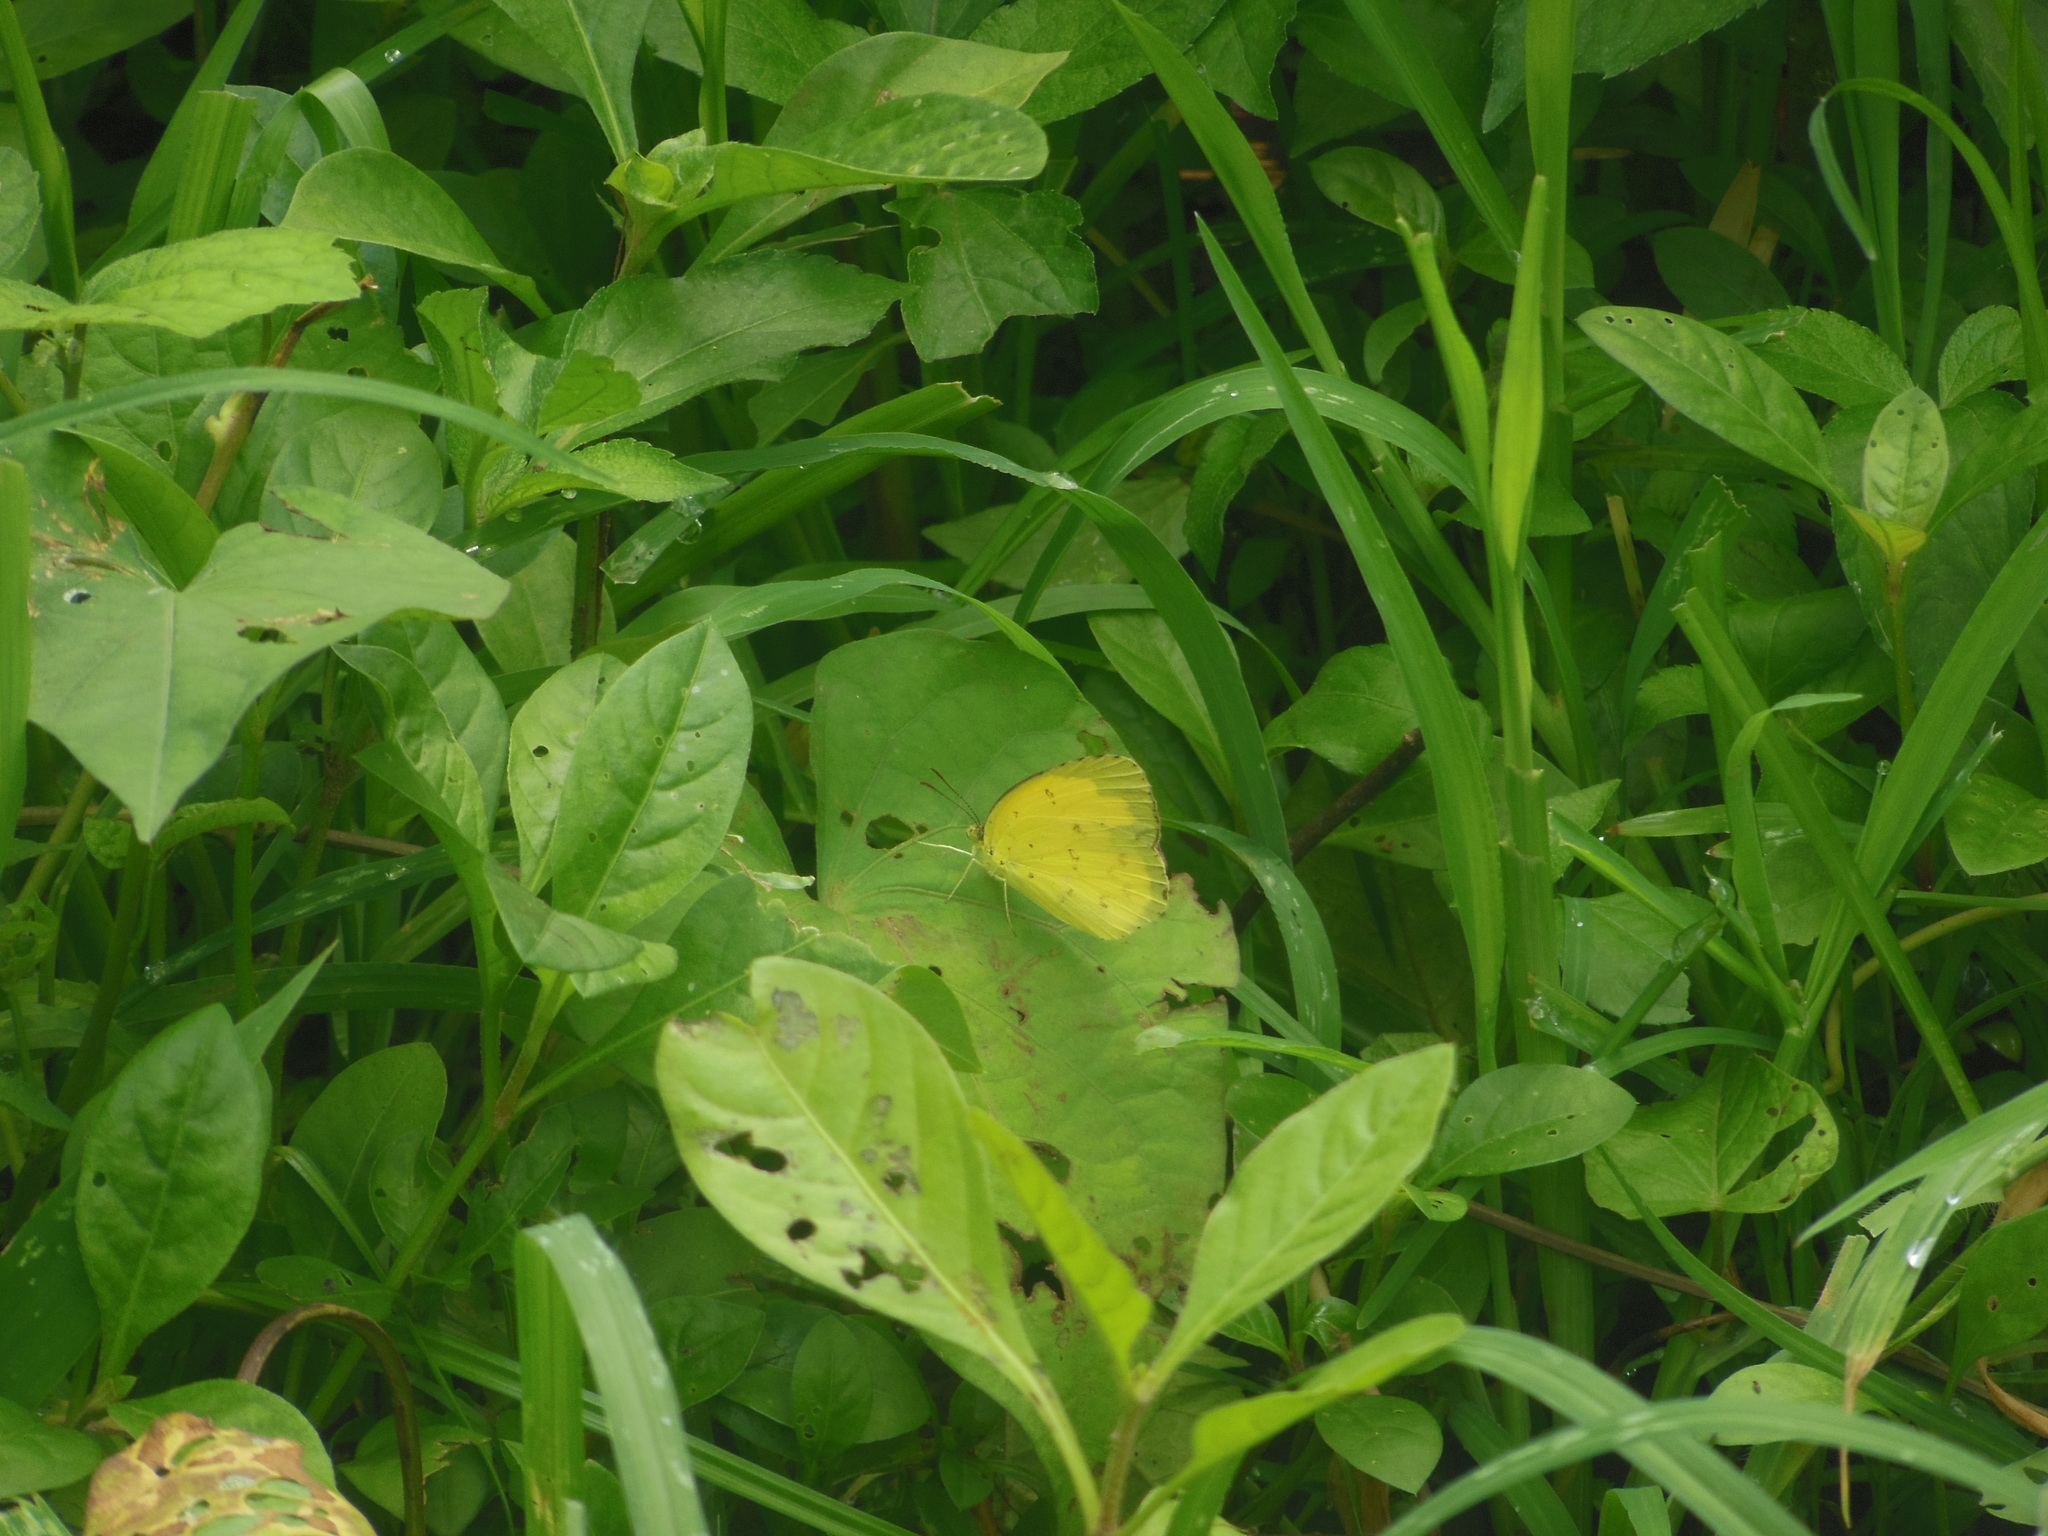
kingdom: Animalia
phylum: Arthropoda
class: Insecta
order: Lepidoptera
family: Pieridae
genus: Eurema
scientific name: Eurema hecabe
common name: Pale grass yellow
